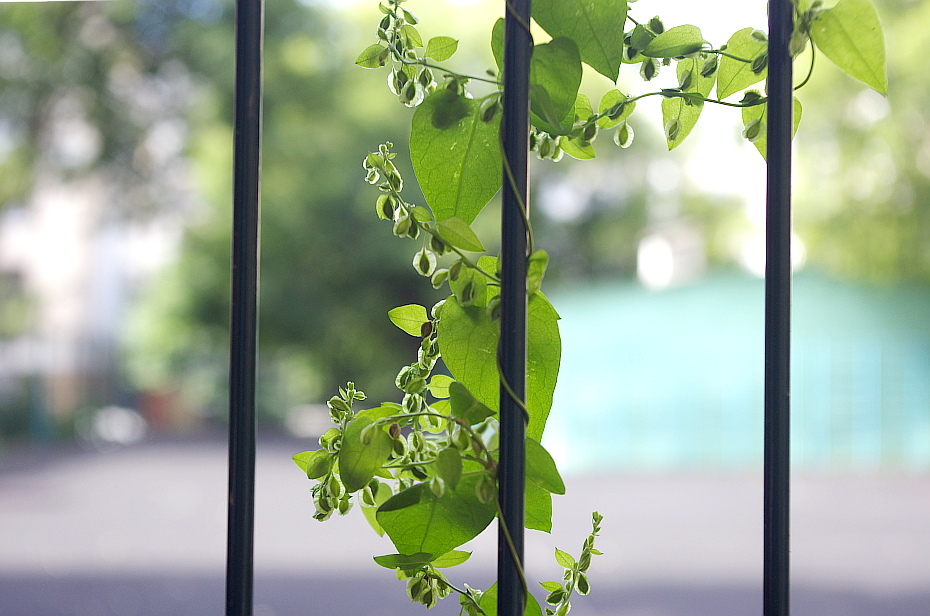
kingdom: Plantae
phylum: Tracheophyta
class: Magnoliopsida
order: Caryophyllales
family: Polygonaceae
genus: Fallopia
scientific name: Fallopia dumetorum
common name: Copse-bindweed
